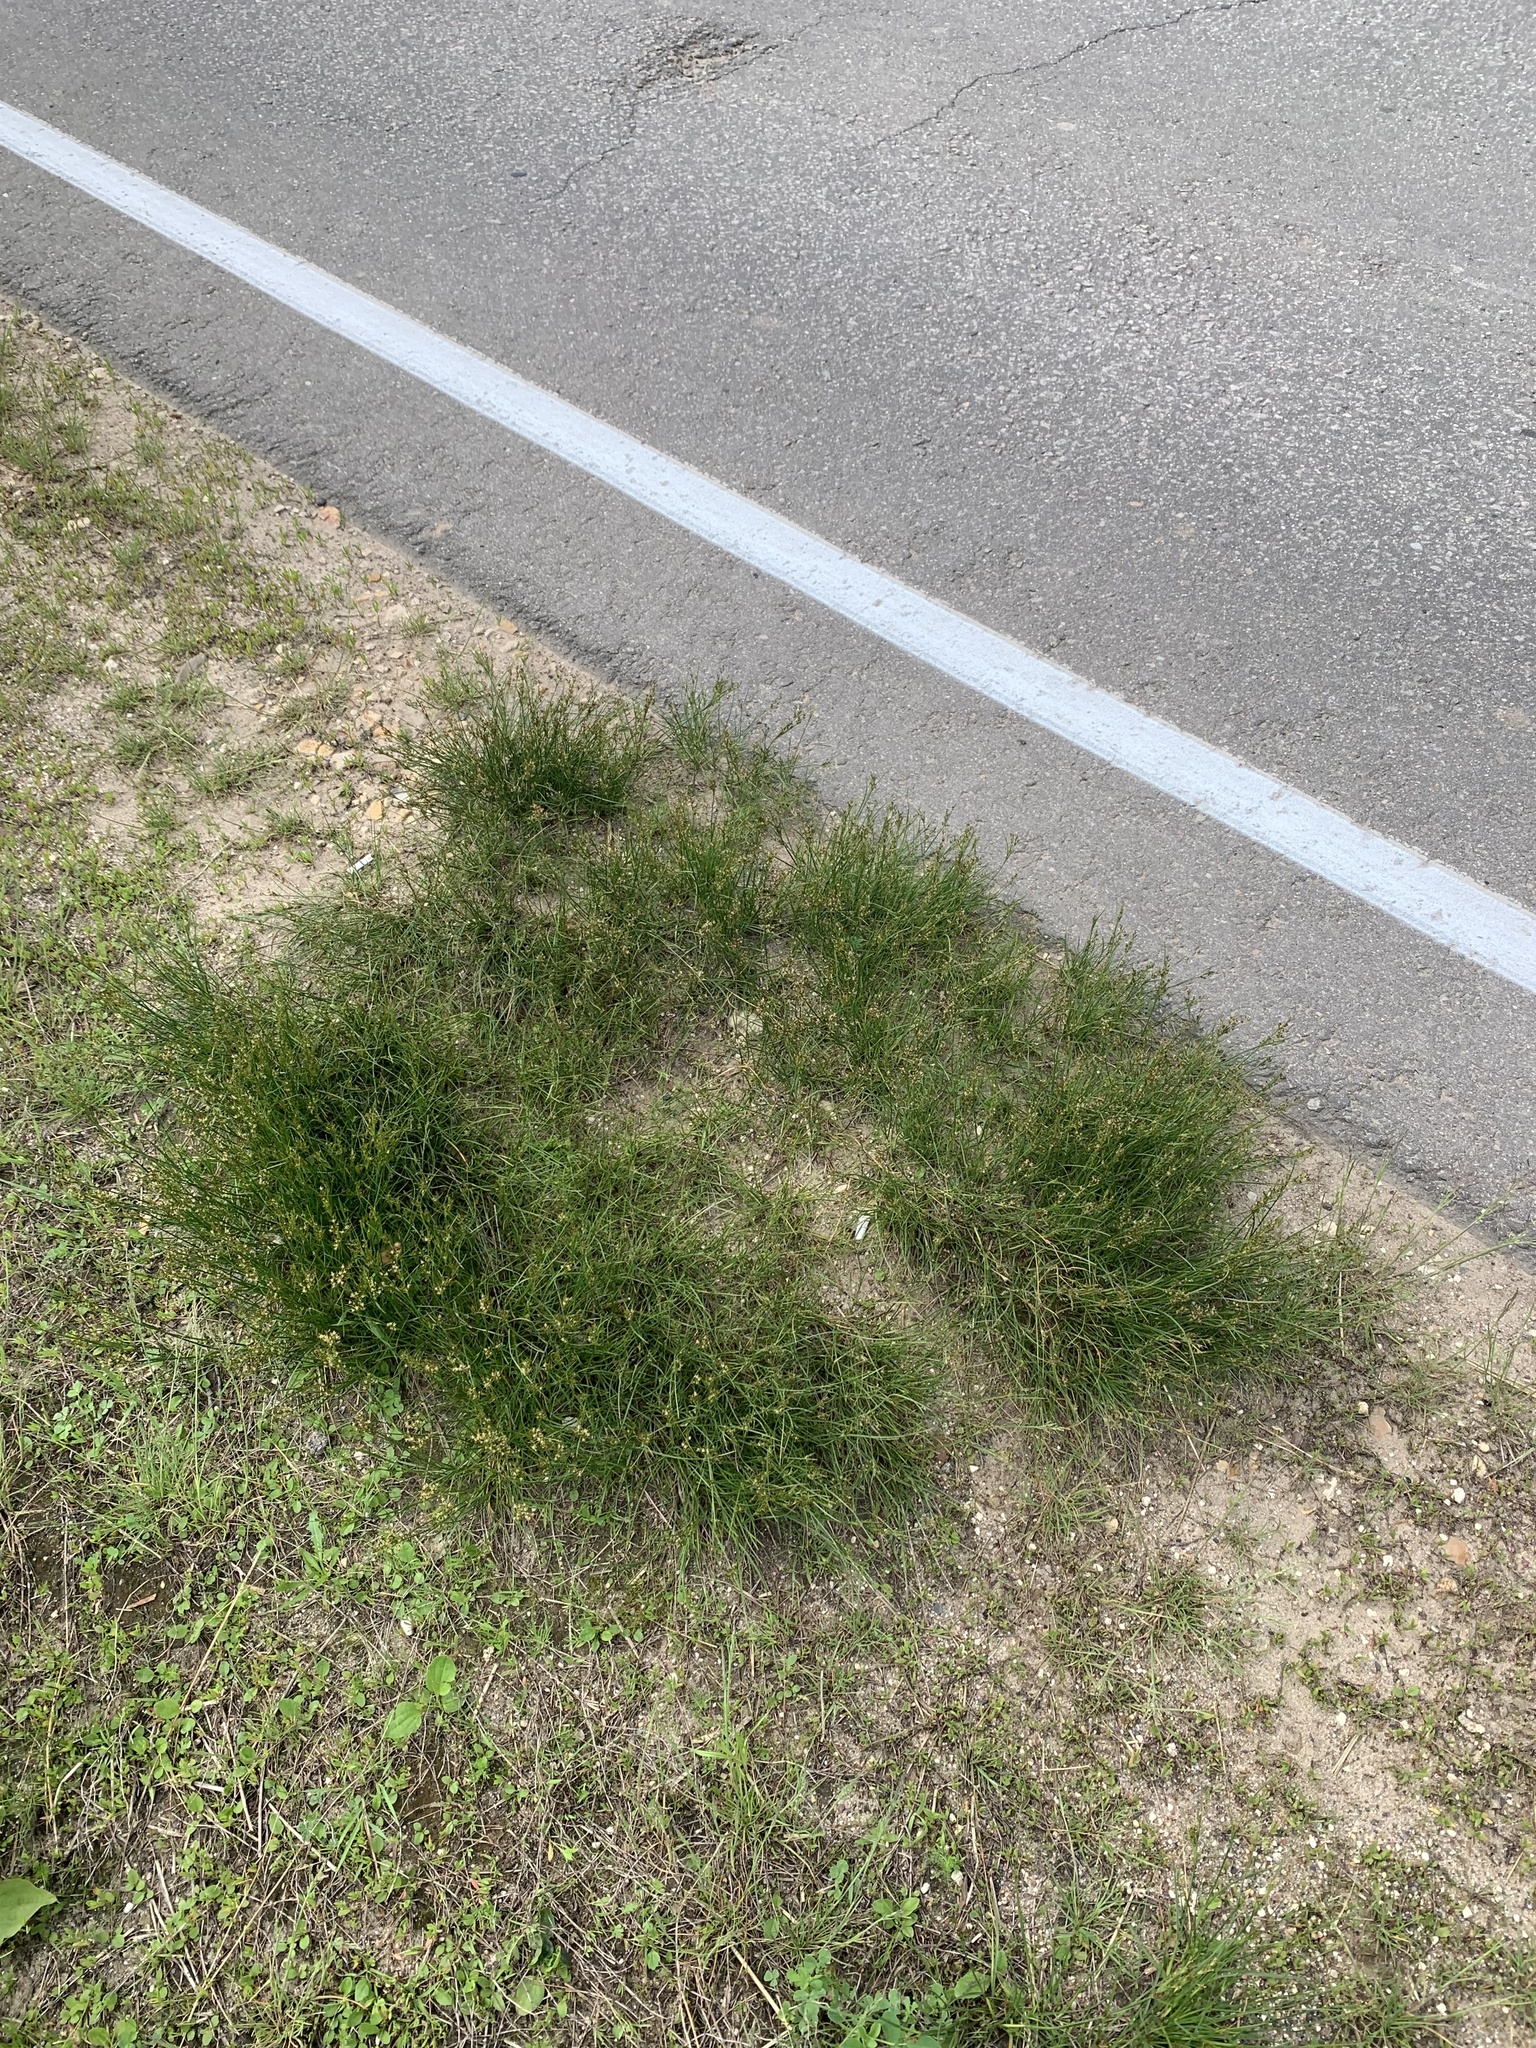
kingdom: Plantae
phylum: Tracheophyta
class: Liliopsida
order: Poales
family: Juncaceae
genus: Juncus
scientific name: Juncus compressus
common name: Round-fruited rush
